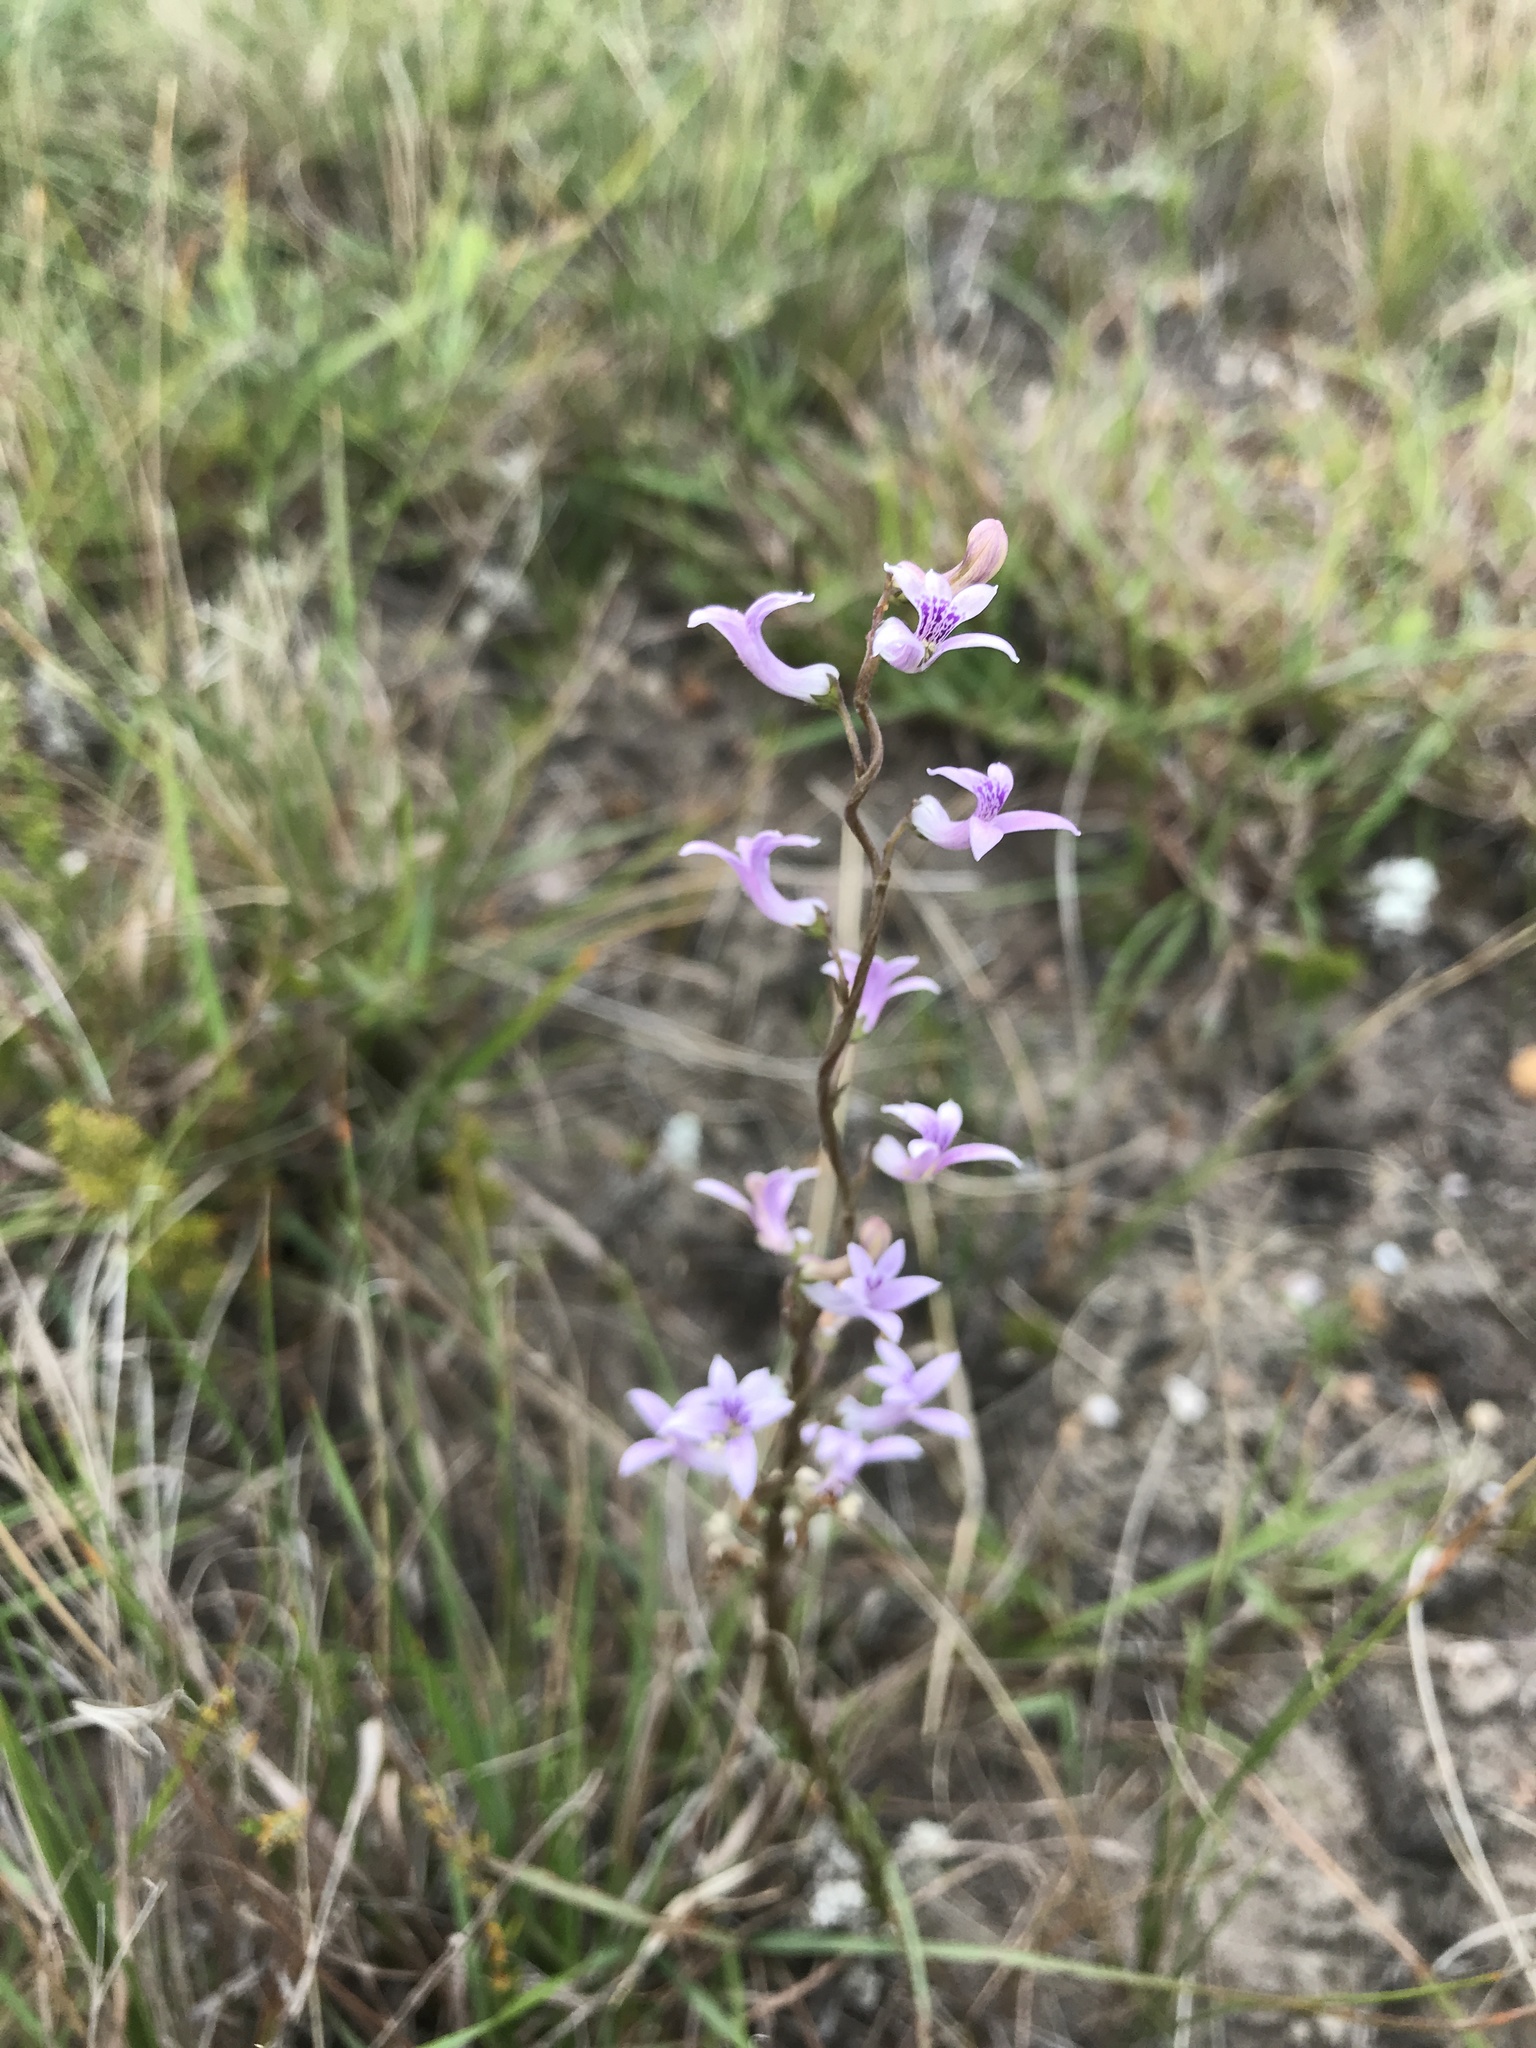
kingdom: Plantae
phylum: Tracheophyta
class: Magnoliopsida
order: Asterales
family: Campanulaceae
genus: Cyphia
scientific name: Cyphia heterophylla
